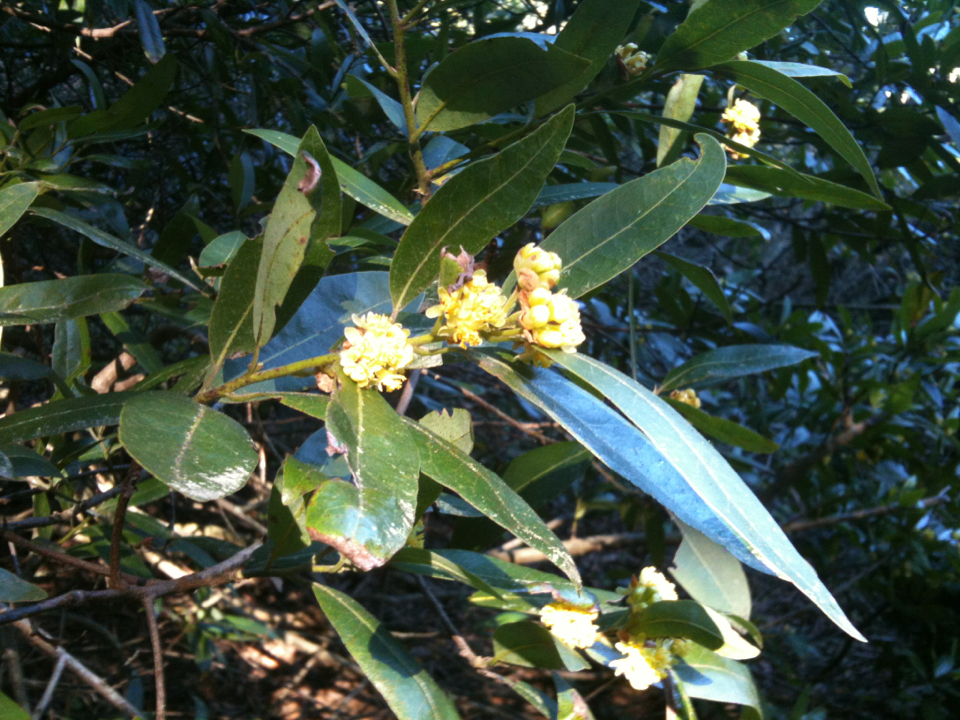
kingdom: Plantae
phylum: Tracheophyta
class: Magnoliopsida
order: Laurales
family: Lauraceae
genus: Umbellularia
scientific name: Umbellularia californica
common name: California bay
